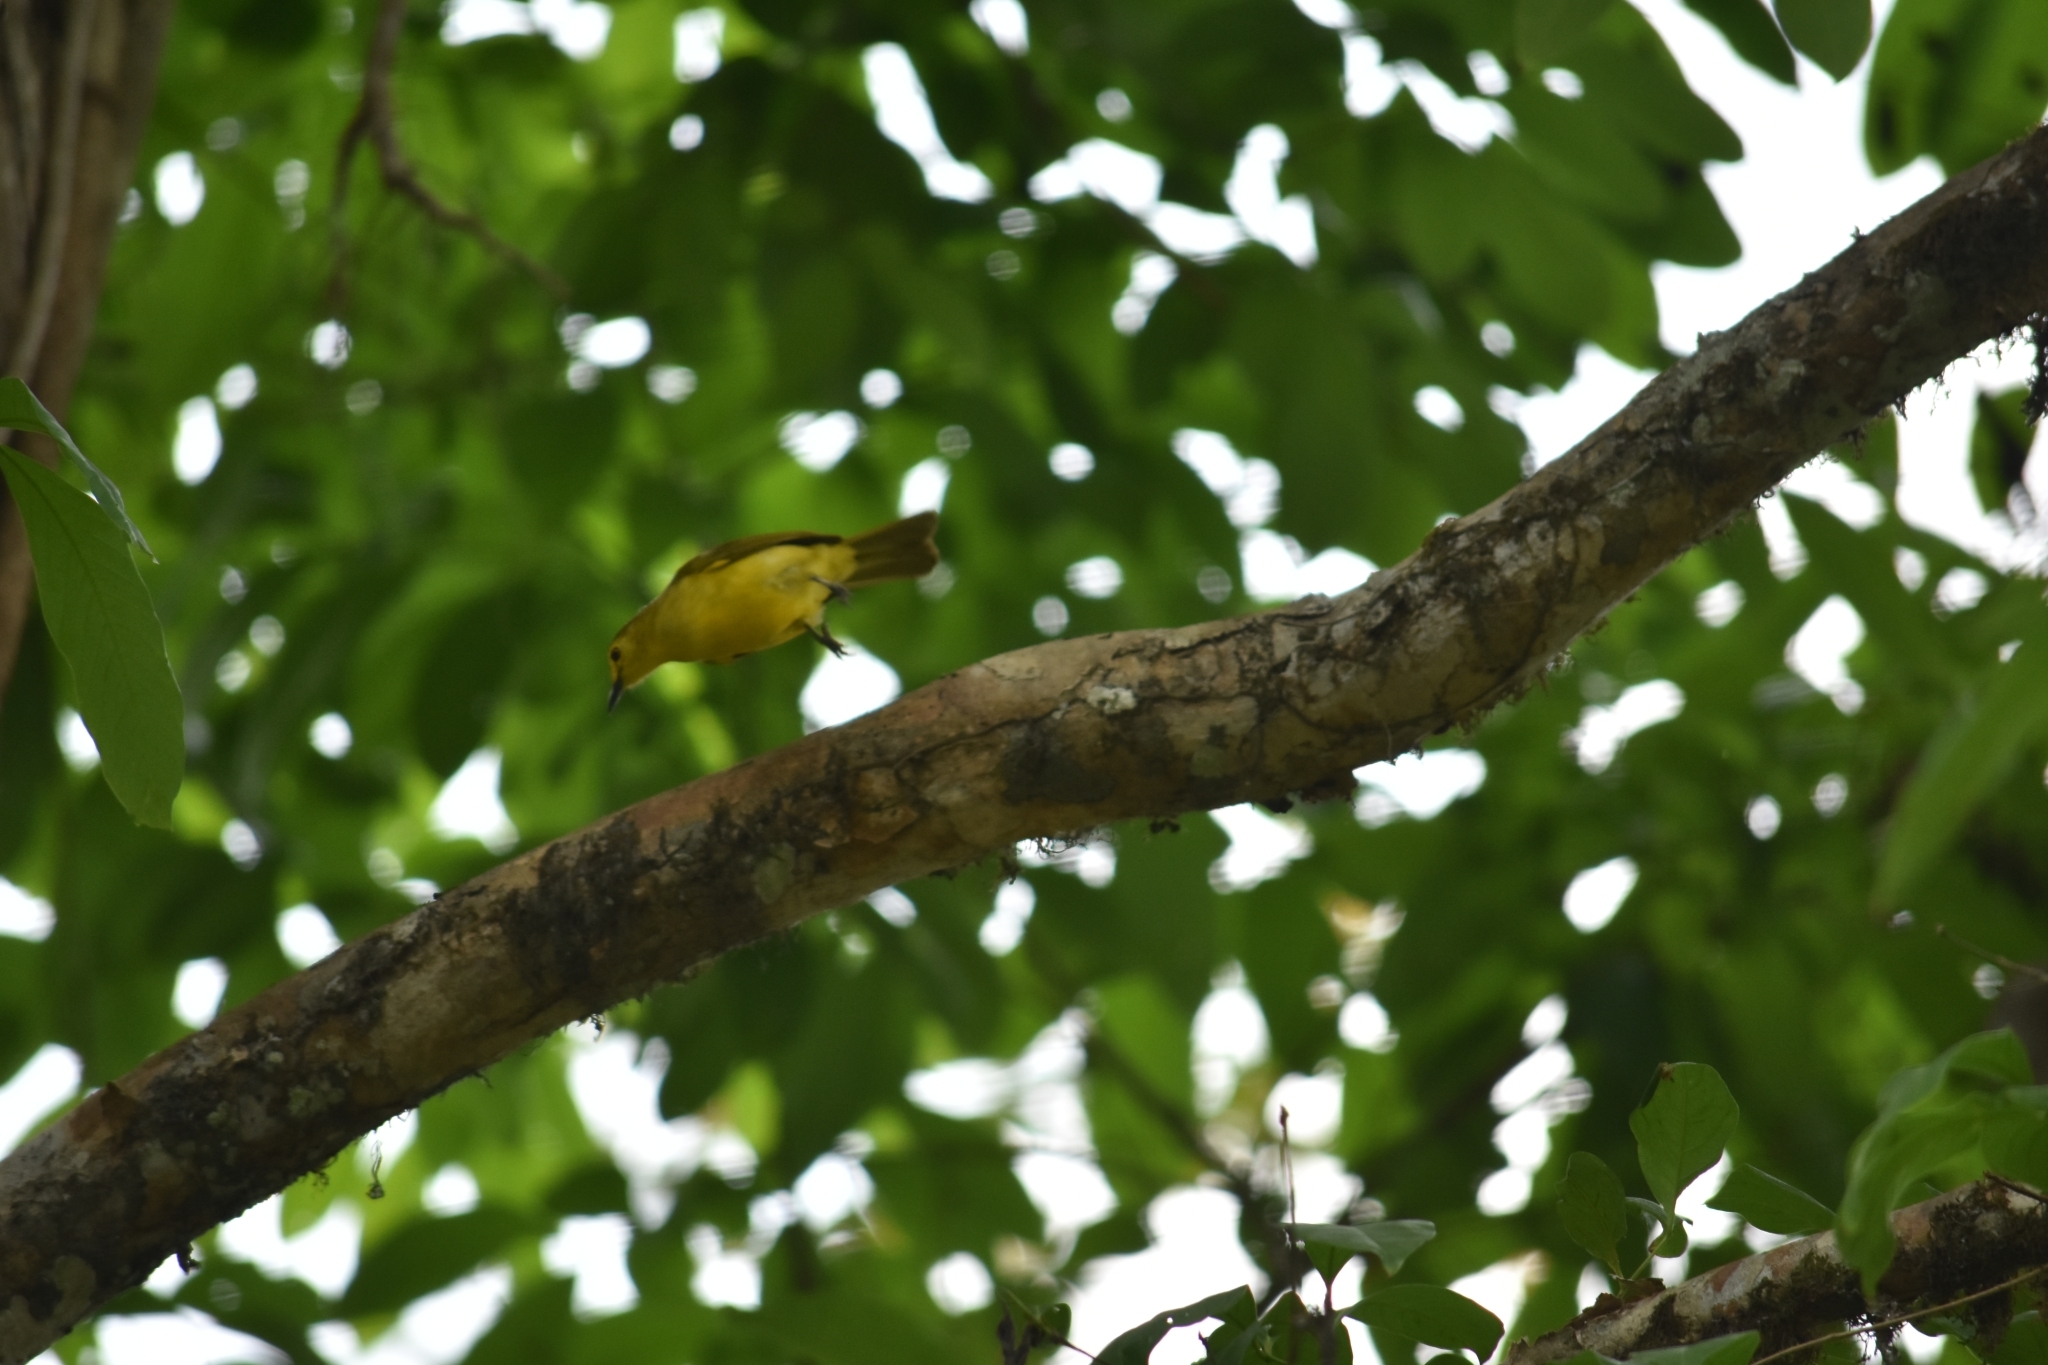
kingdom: Animalia
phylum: Chordata
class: Aves
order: Passeriformes
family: Pycnonotidae
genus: Acritillas
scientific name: Acritillas indica
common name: Yellow-browed bulbul
